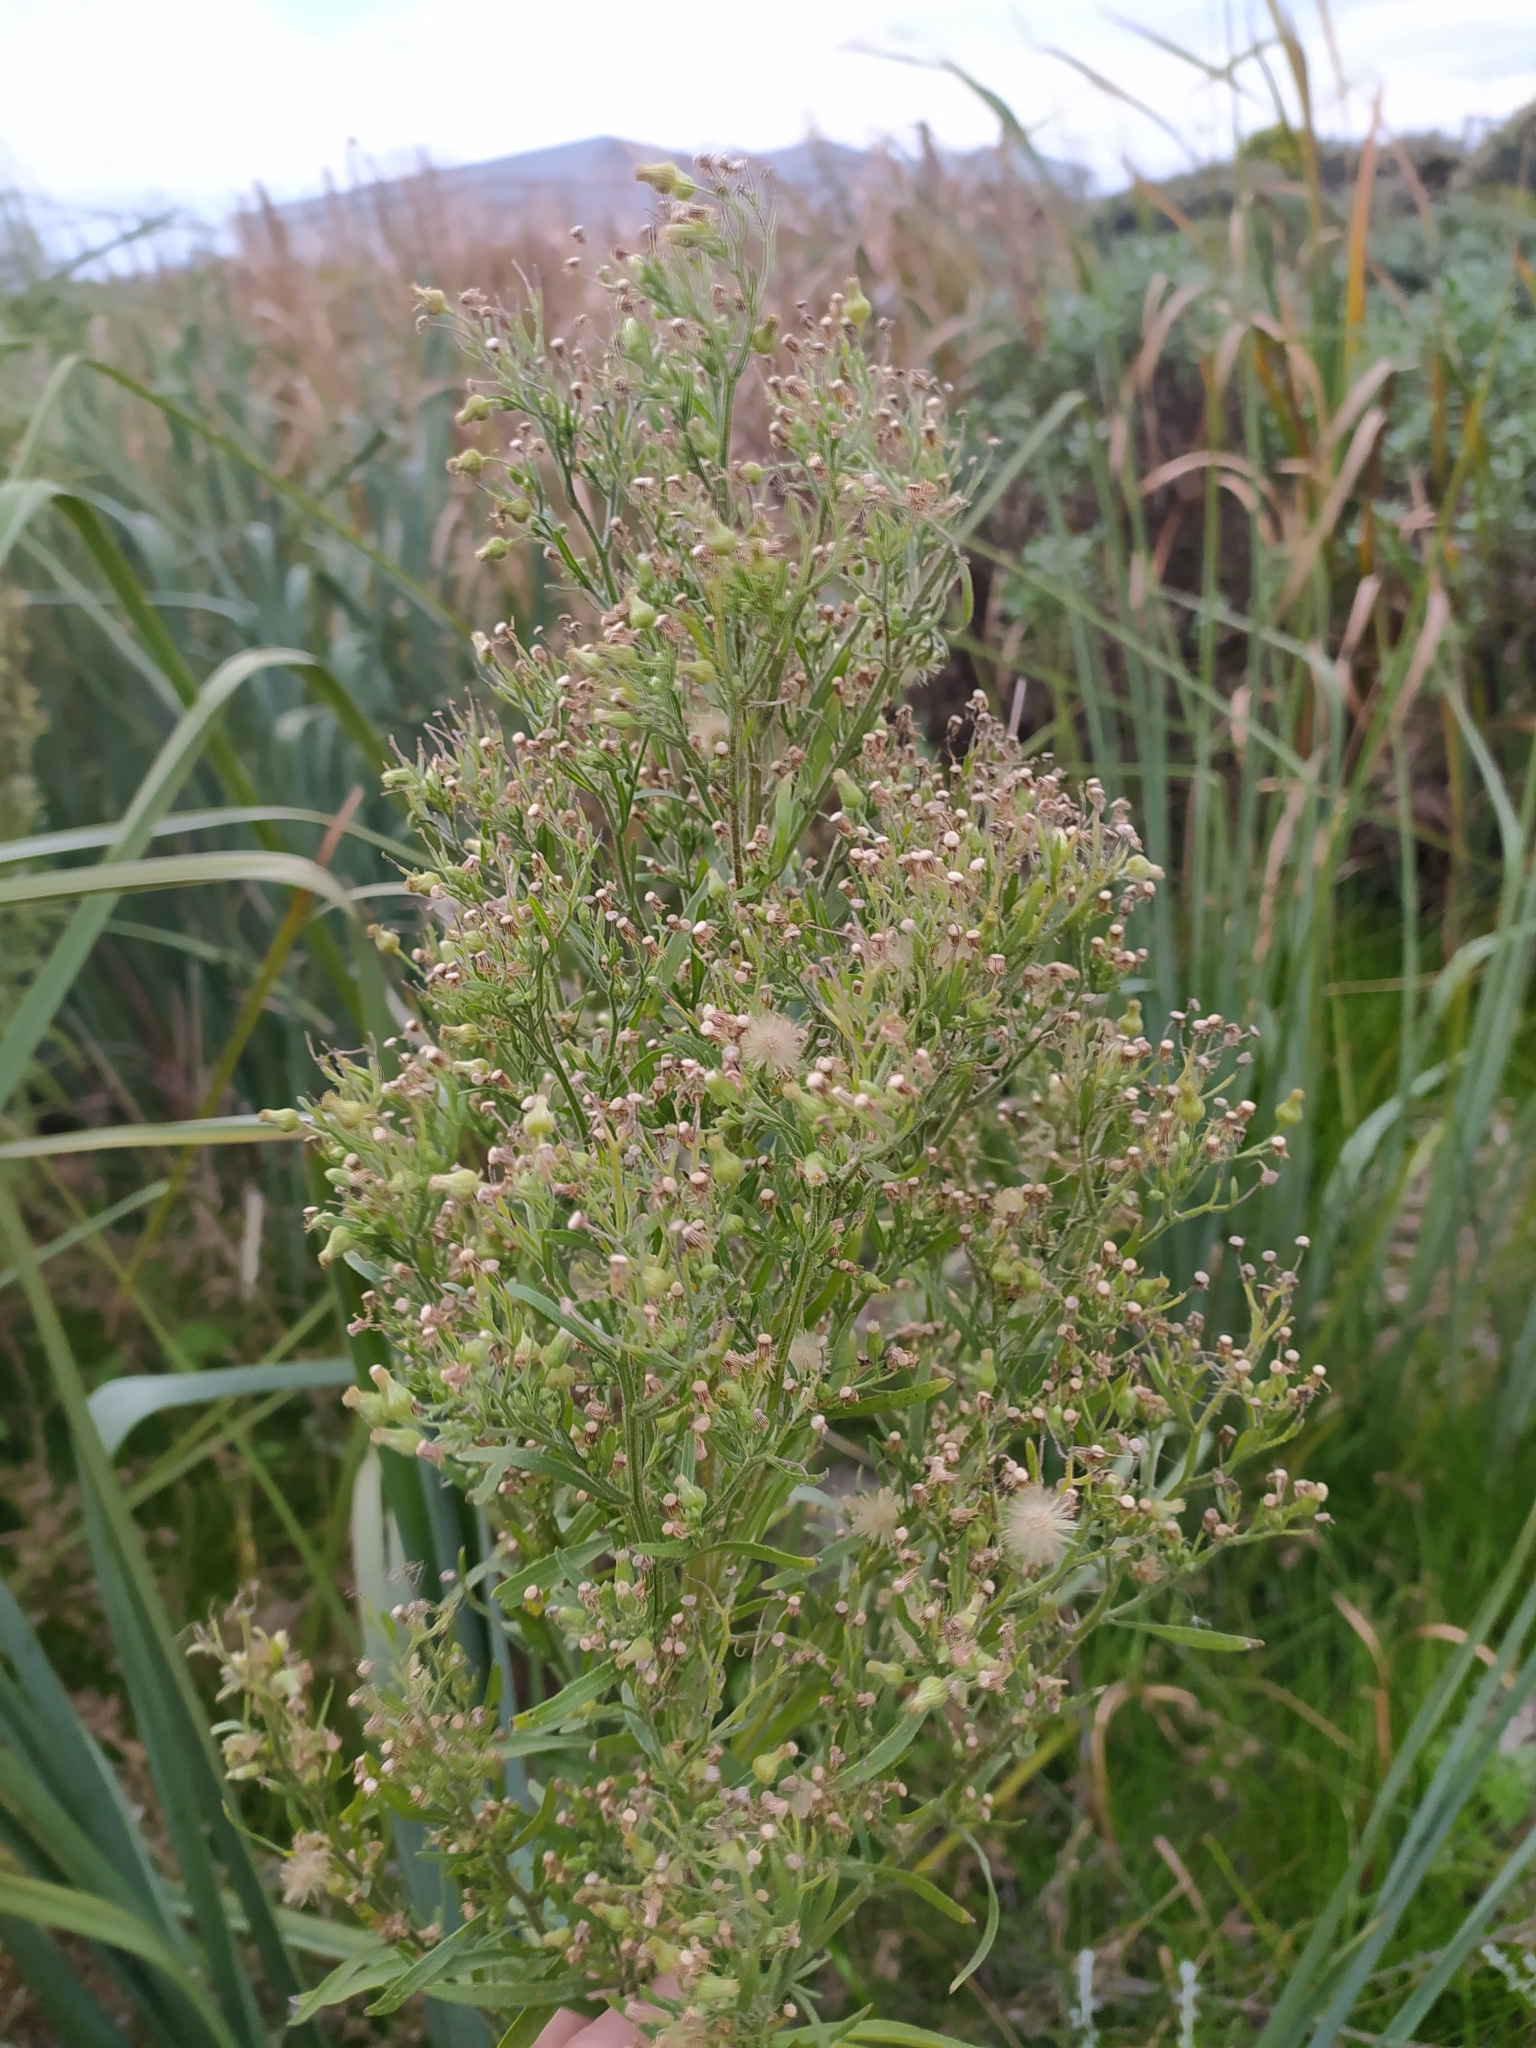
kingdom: Plantae
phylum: Tracheophyta
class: Magnoliopsida
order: Asterales
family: Asteraceae
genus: Erigeron
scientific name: Erigeron sumatrensis
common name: Daisy
